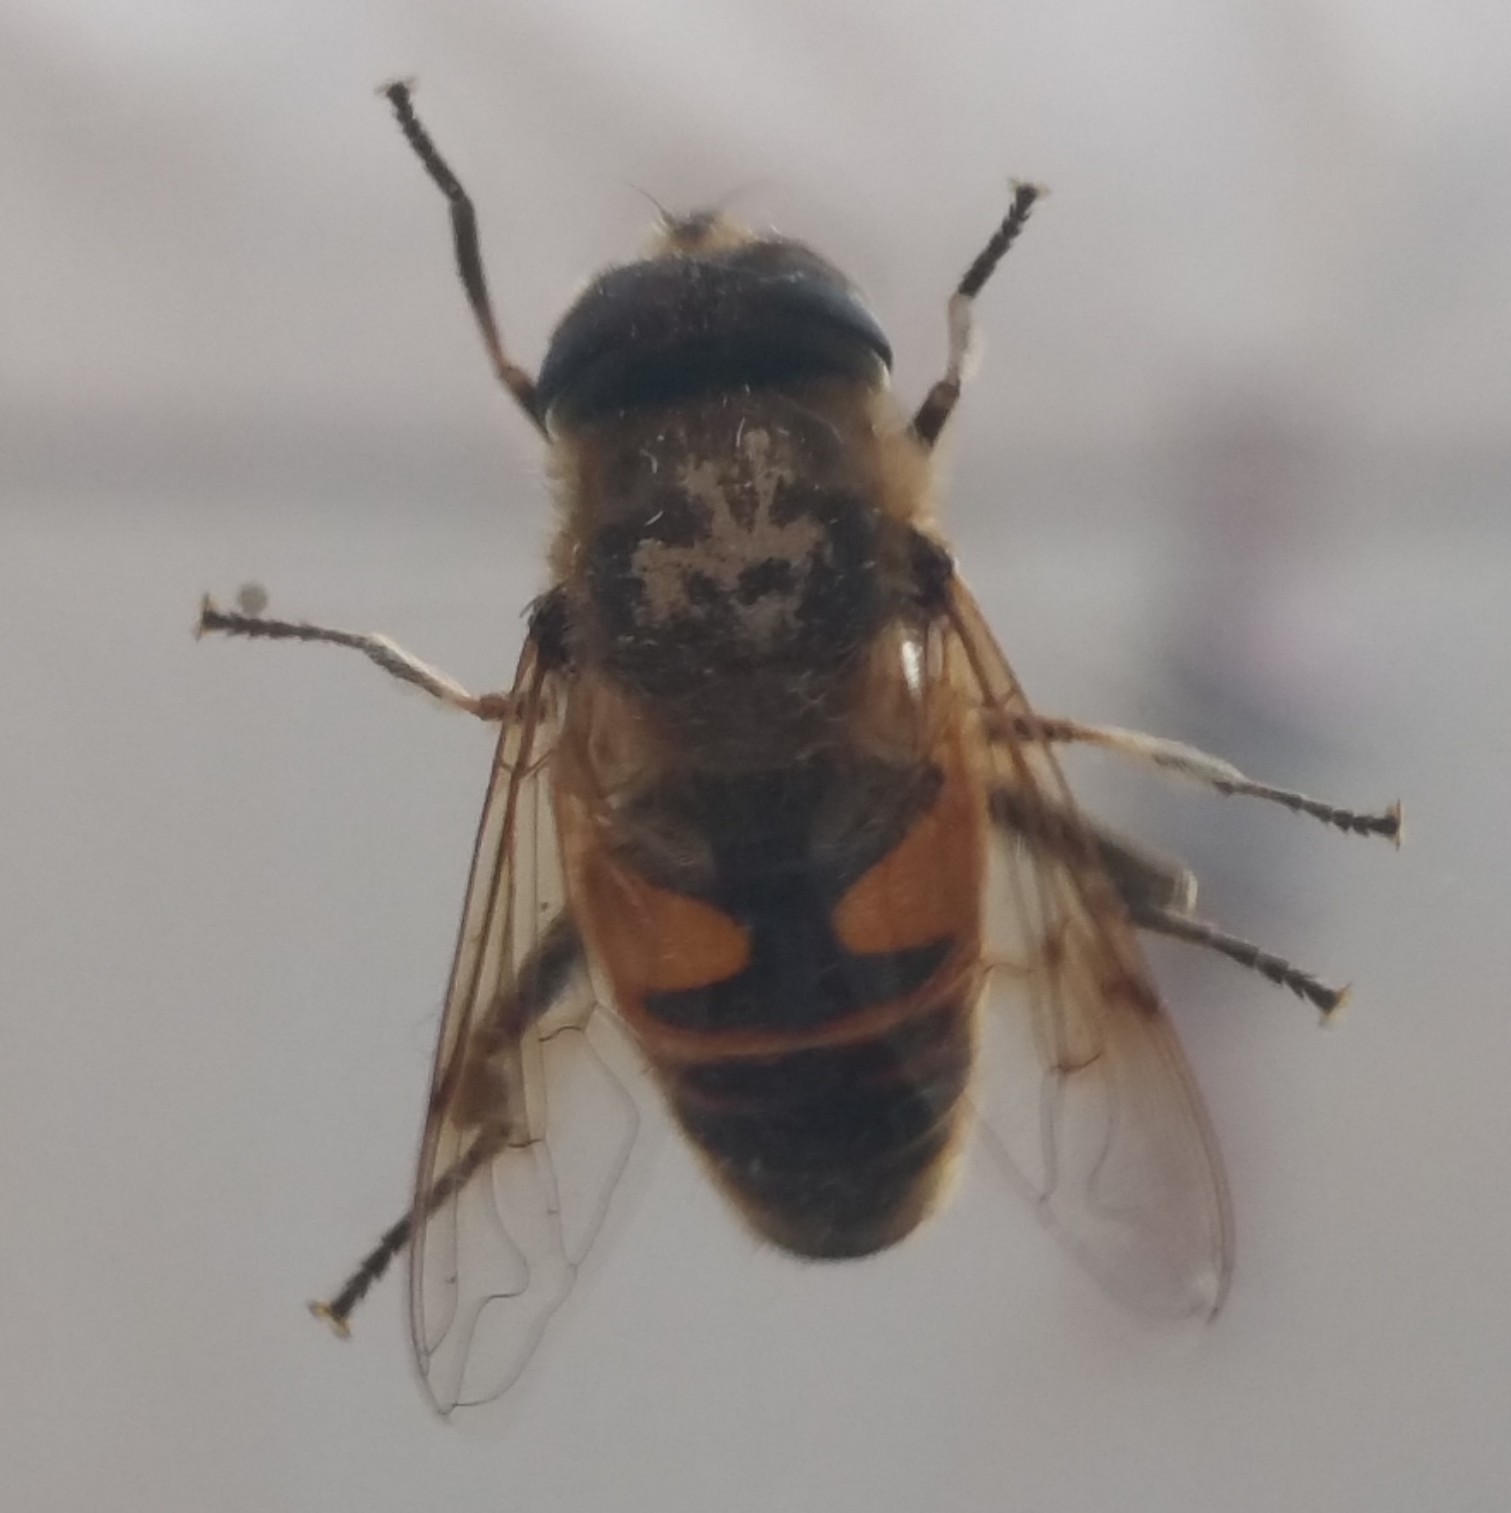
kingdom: Animalia
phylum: Arthropoda
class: Insecta
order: Diptera
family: Syrphidae
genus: Eristalis
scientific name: Eristalis tenax
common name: Drone fly
